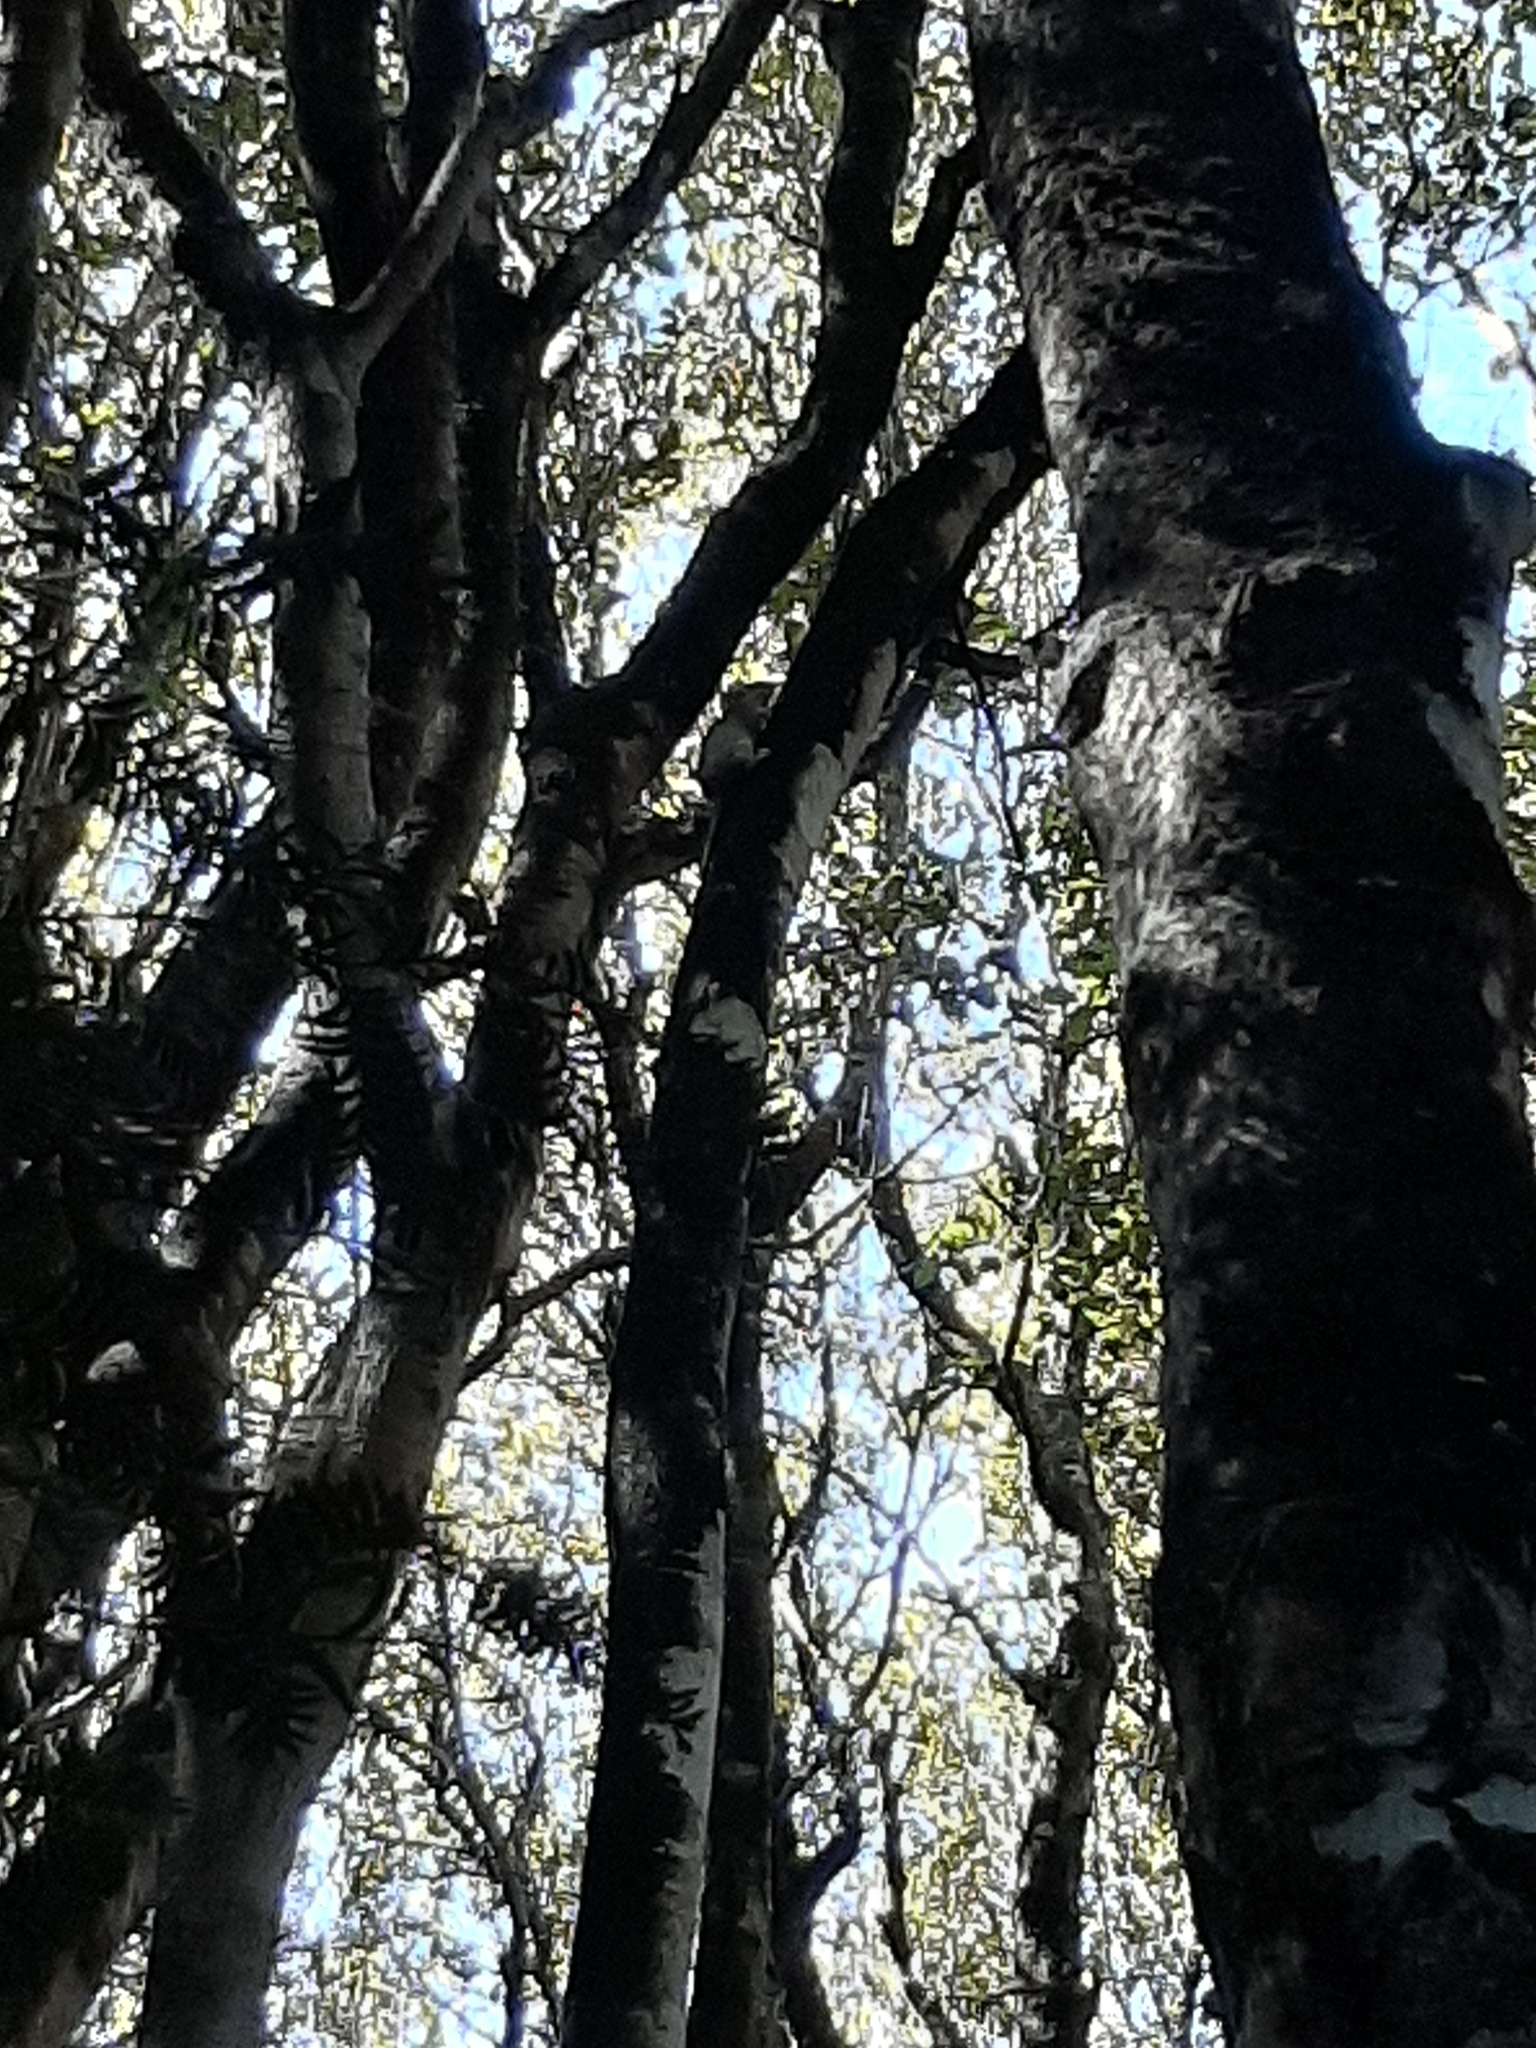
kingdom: Animalia
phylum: Chordata
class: Mammalia
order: Rodentia
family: Muridae
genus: Rattus
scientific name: Rattus rattus
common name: Black rat
